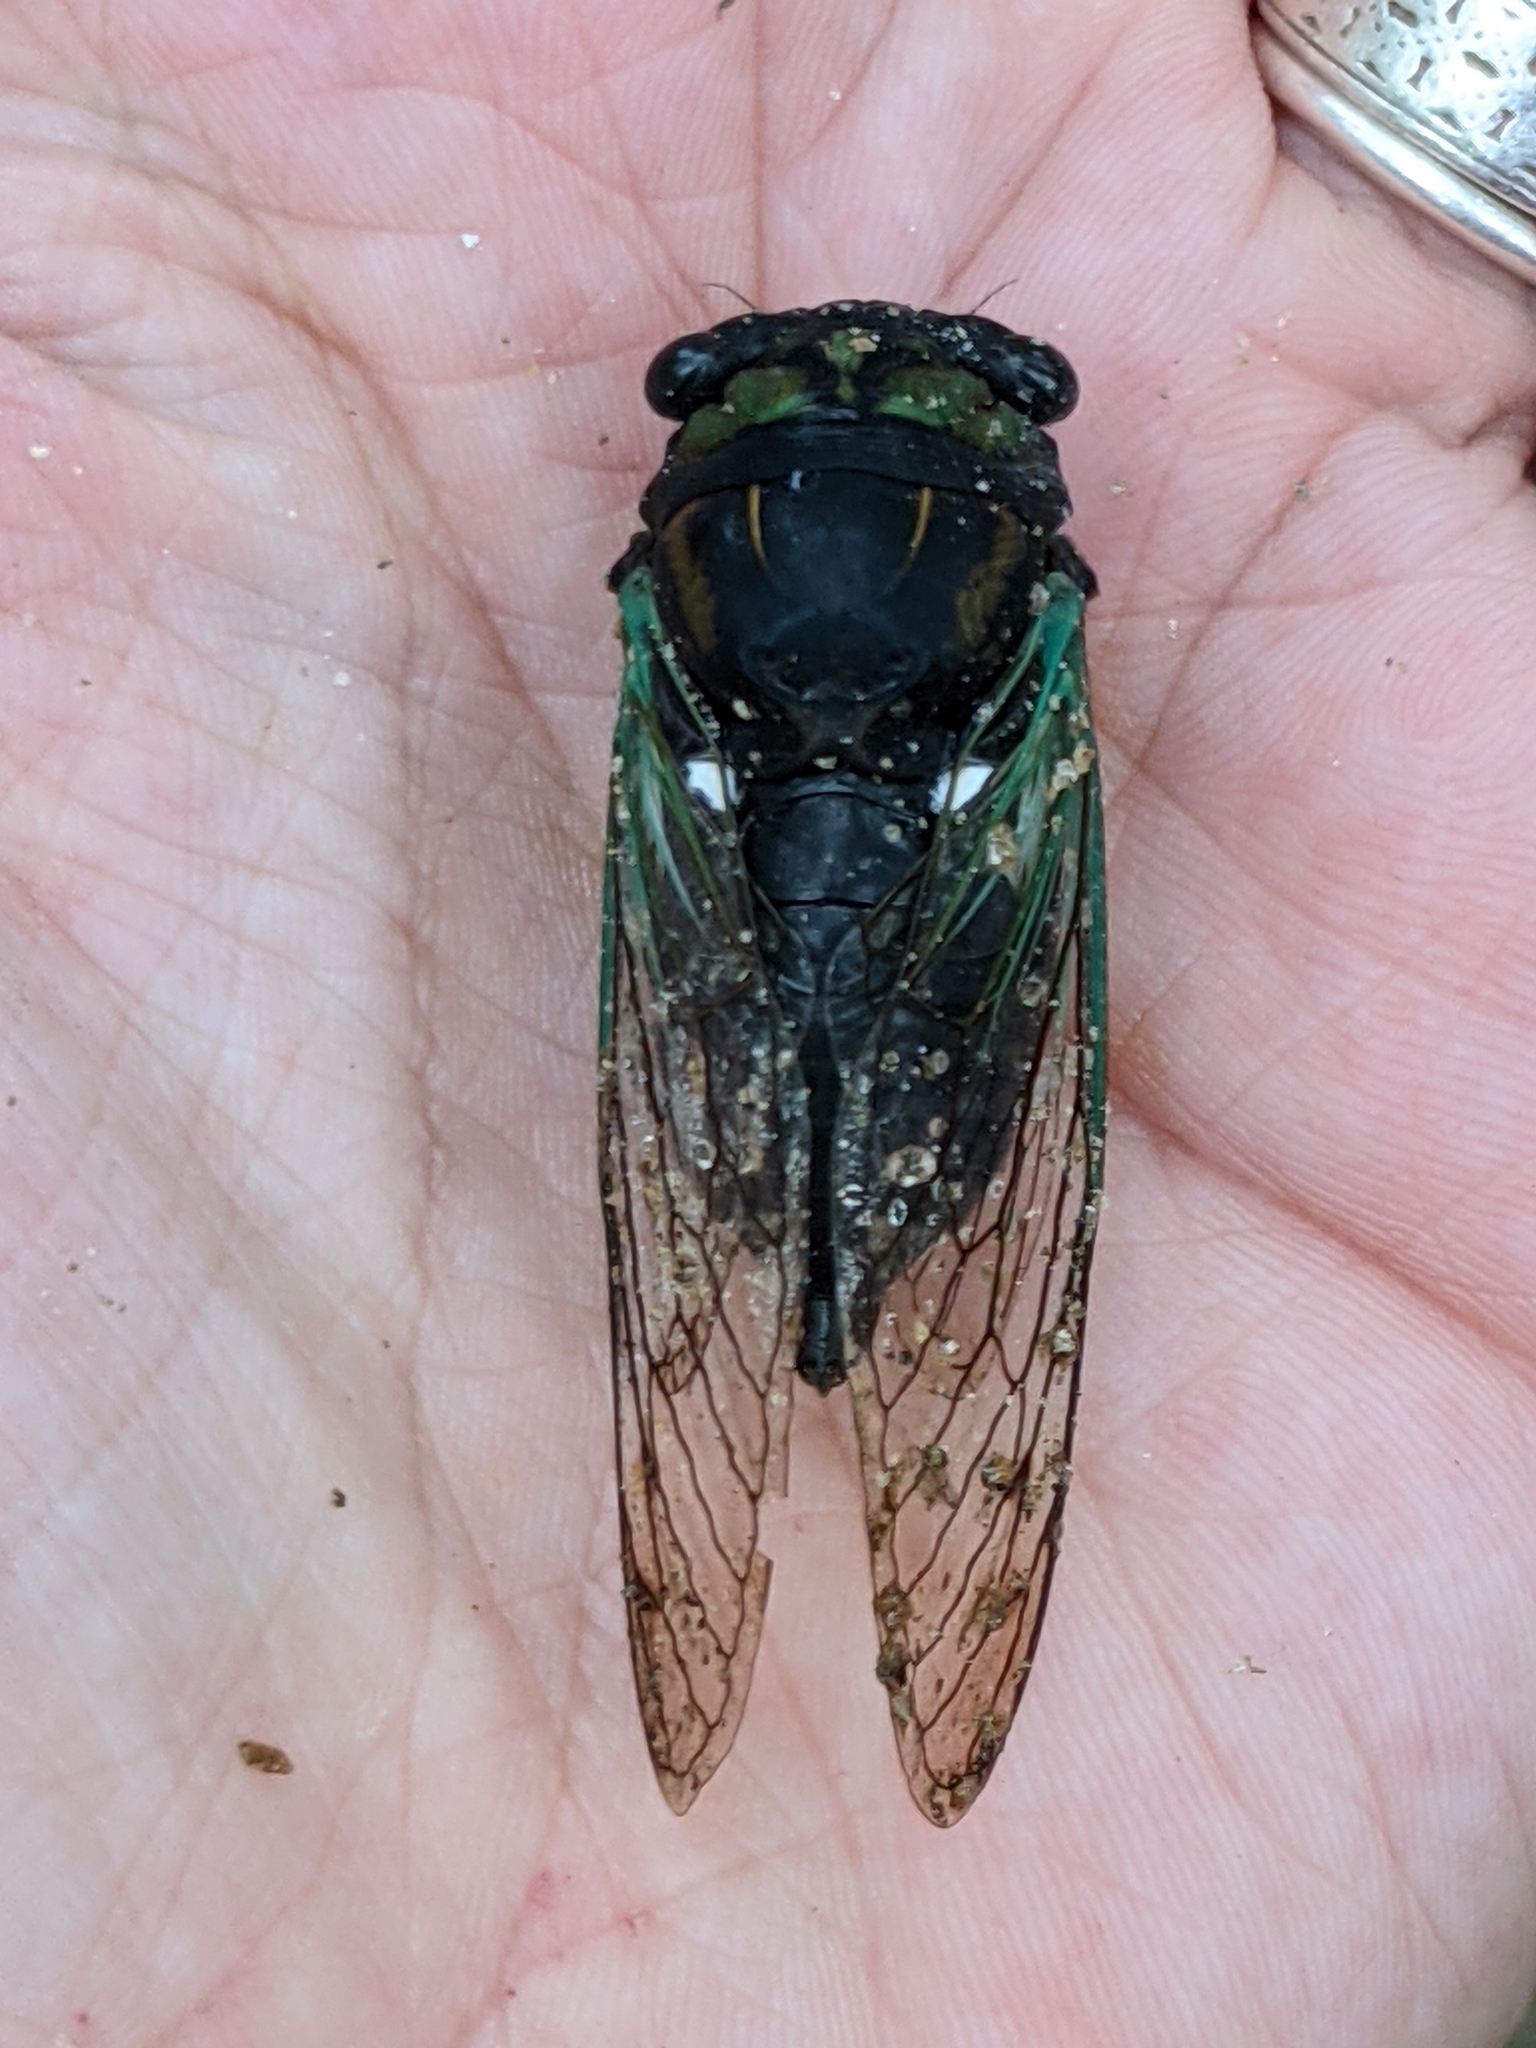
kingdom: Animalia
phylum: Arthropoda
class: Insecta
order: Hemiptera
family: Cicadidae
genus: Neotibicen
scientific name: Neotibicen tibicen
